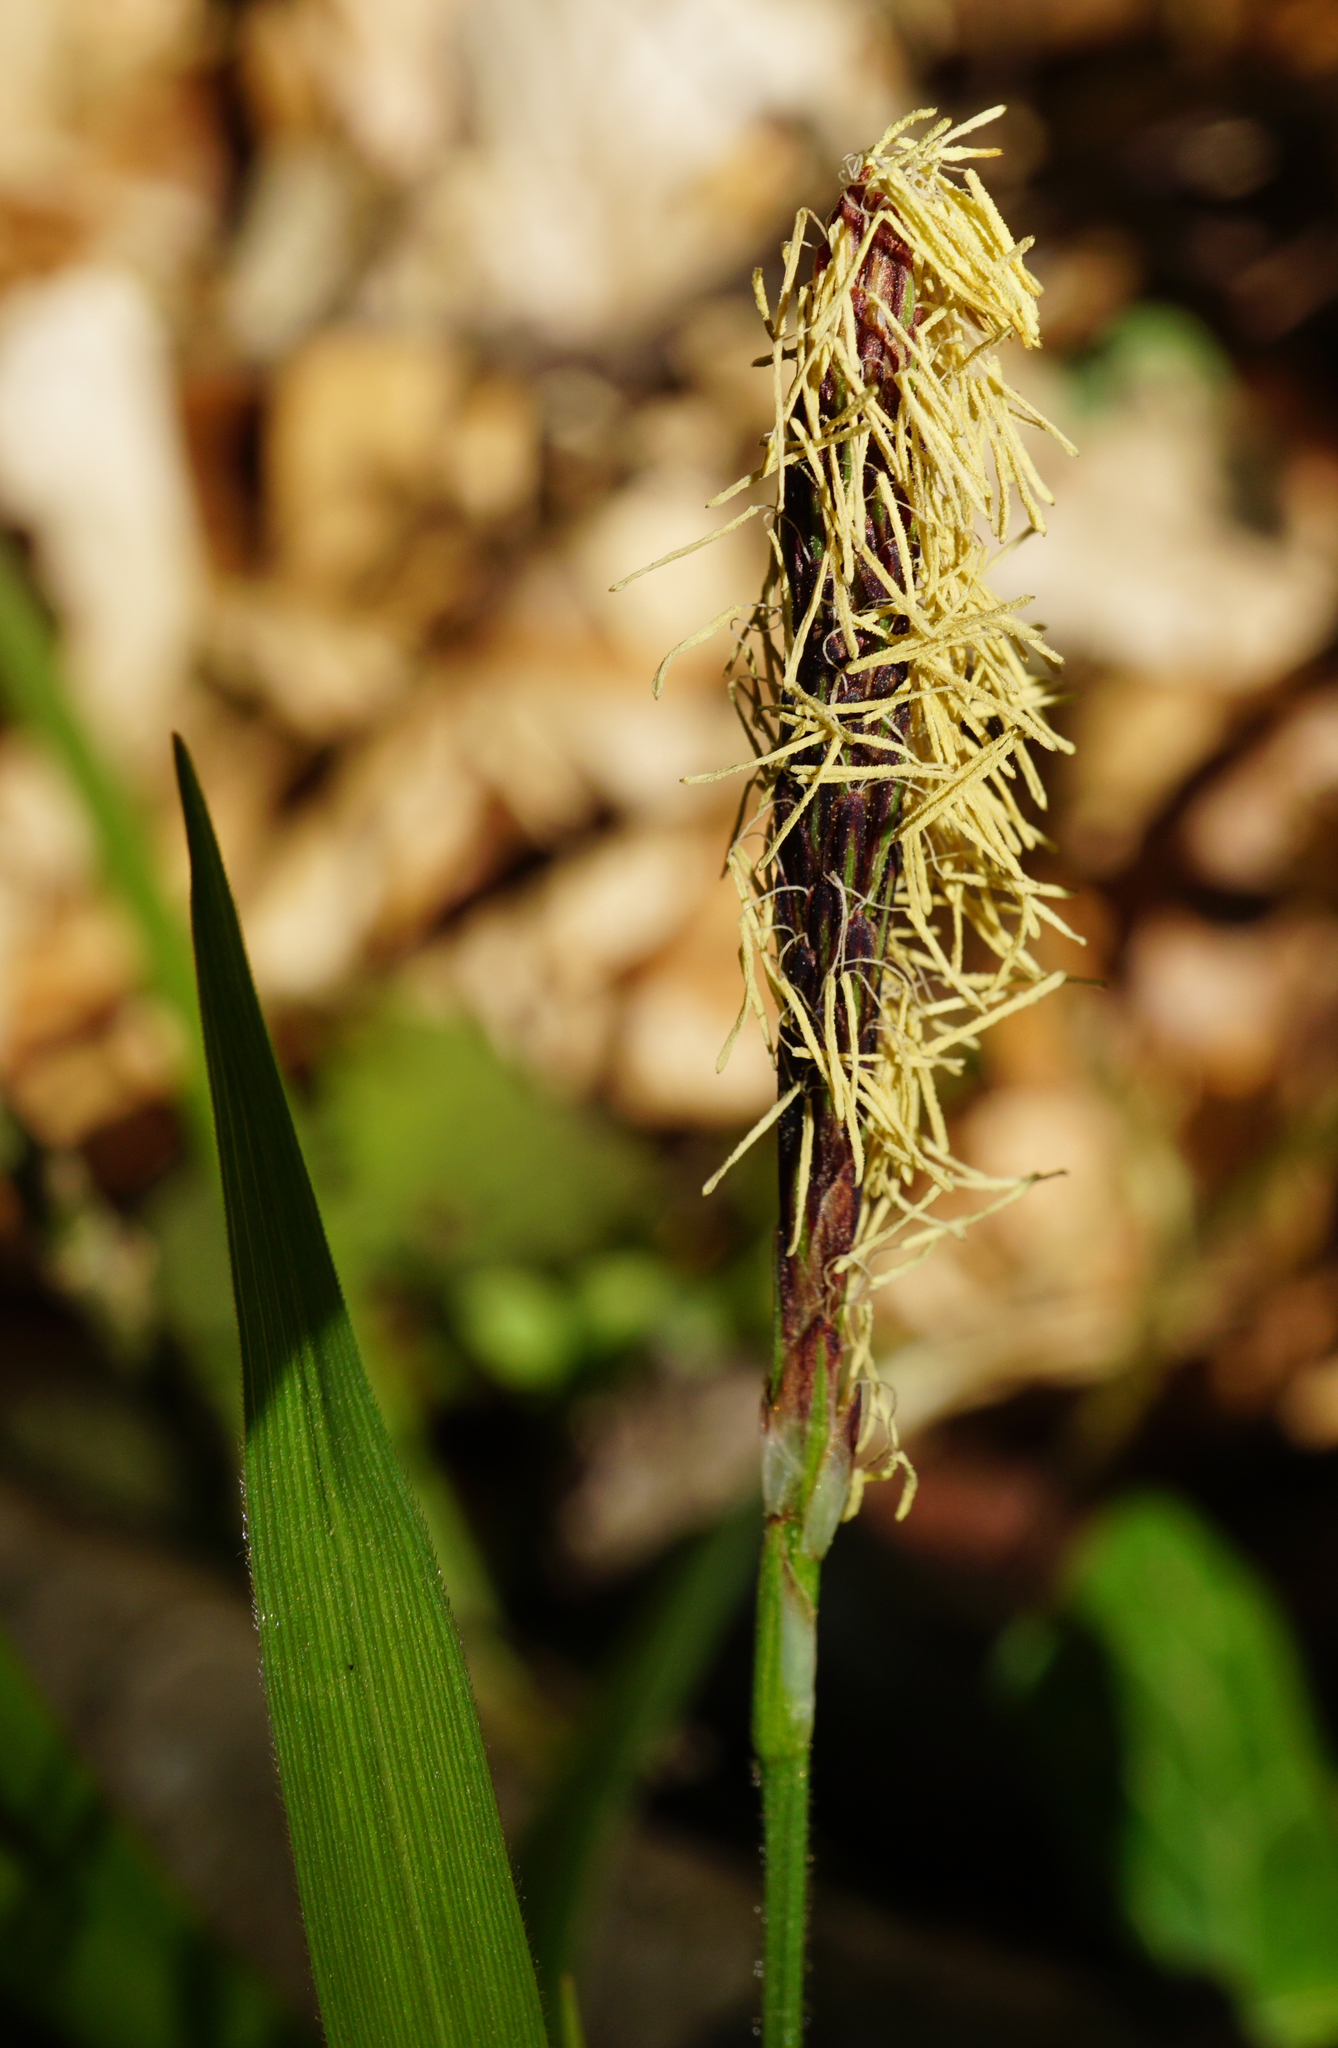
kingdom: Plantae
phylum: Tracheophyta
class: Liliopsida
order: Poales
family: Cyperaceae
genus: Carex
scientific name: Carex pilosa
